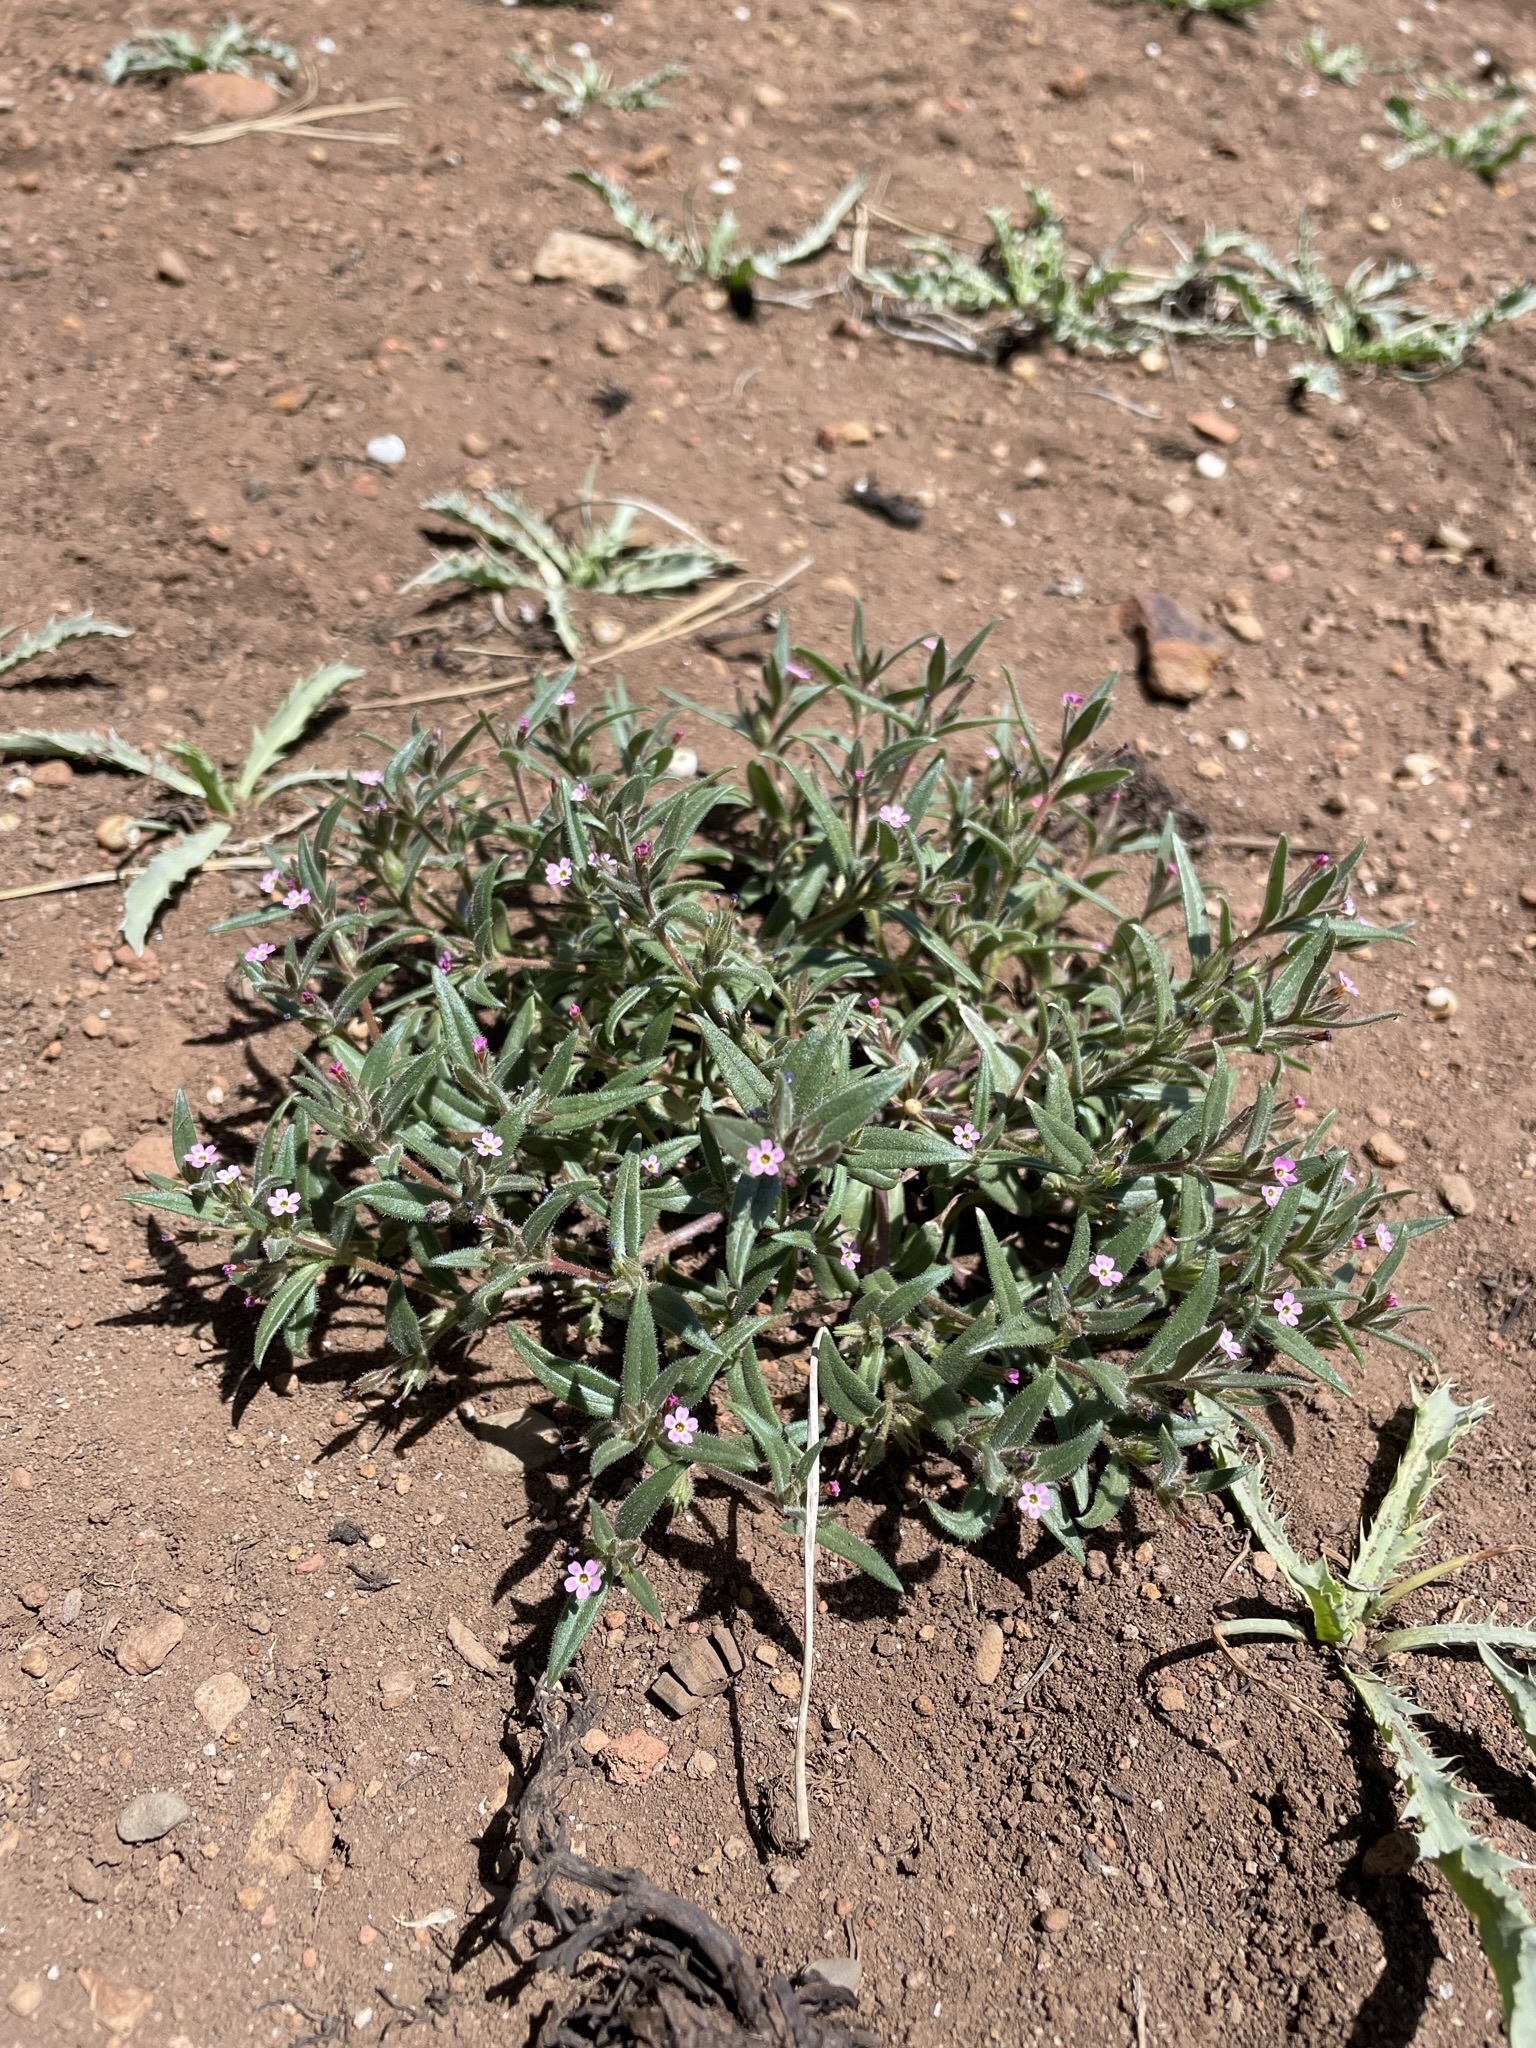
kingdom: Plantae
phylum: Tracheophyta
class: Magnoliopsida
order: Ericales
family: Polemoniaceae
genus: Phlox
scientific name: Phlox gracilis
